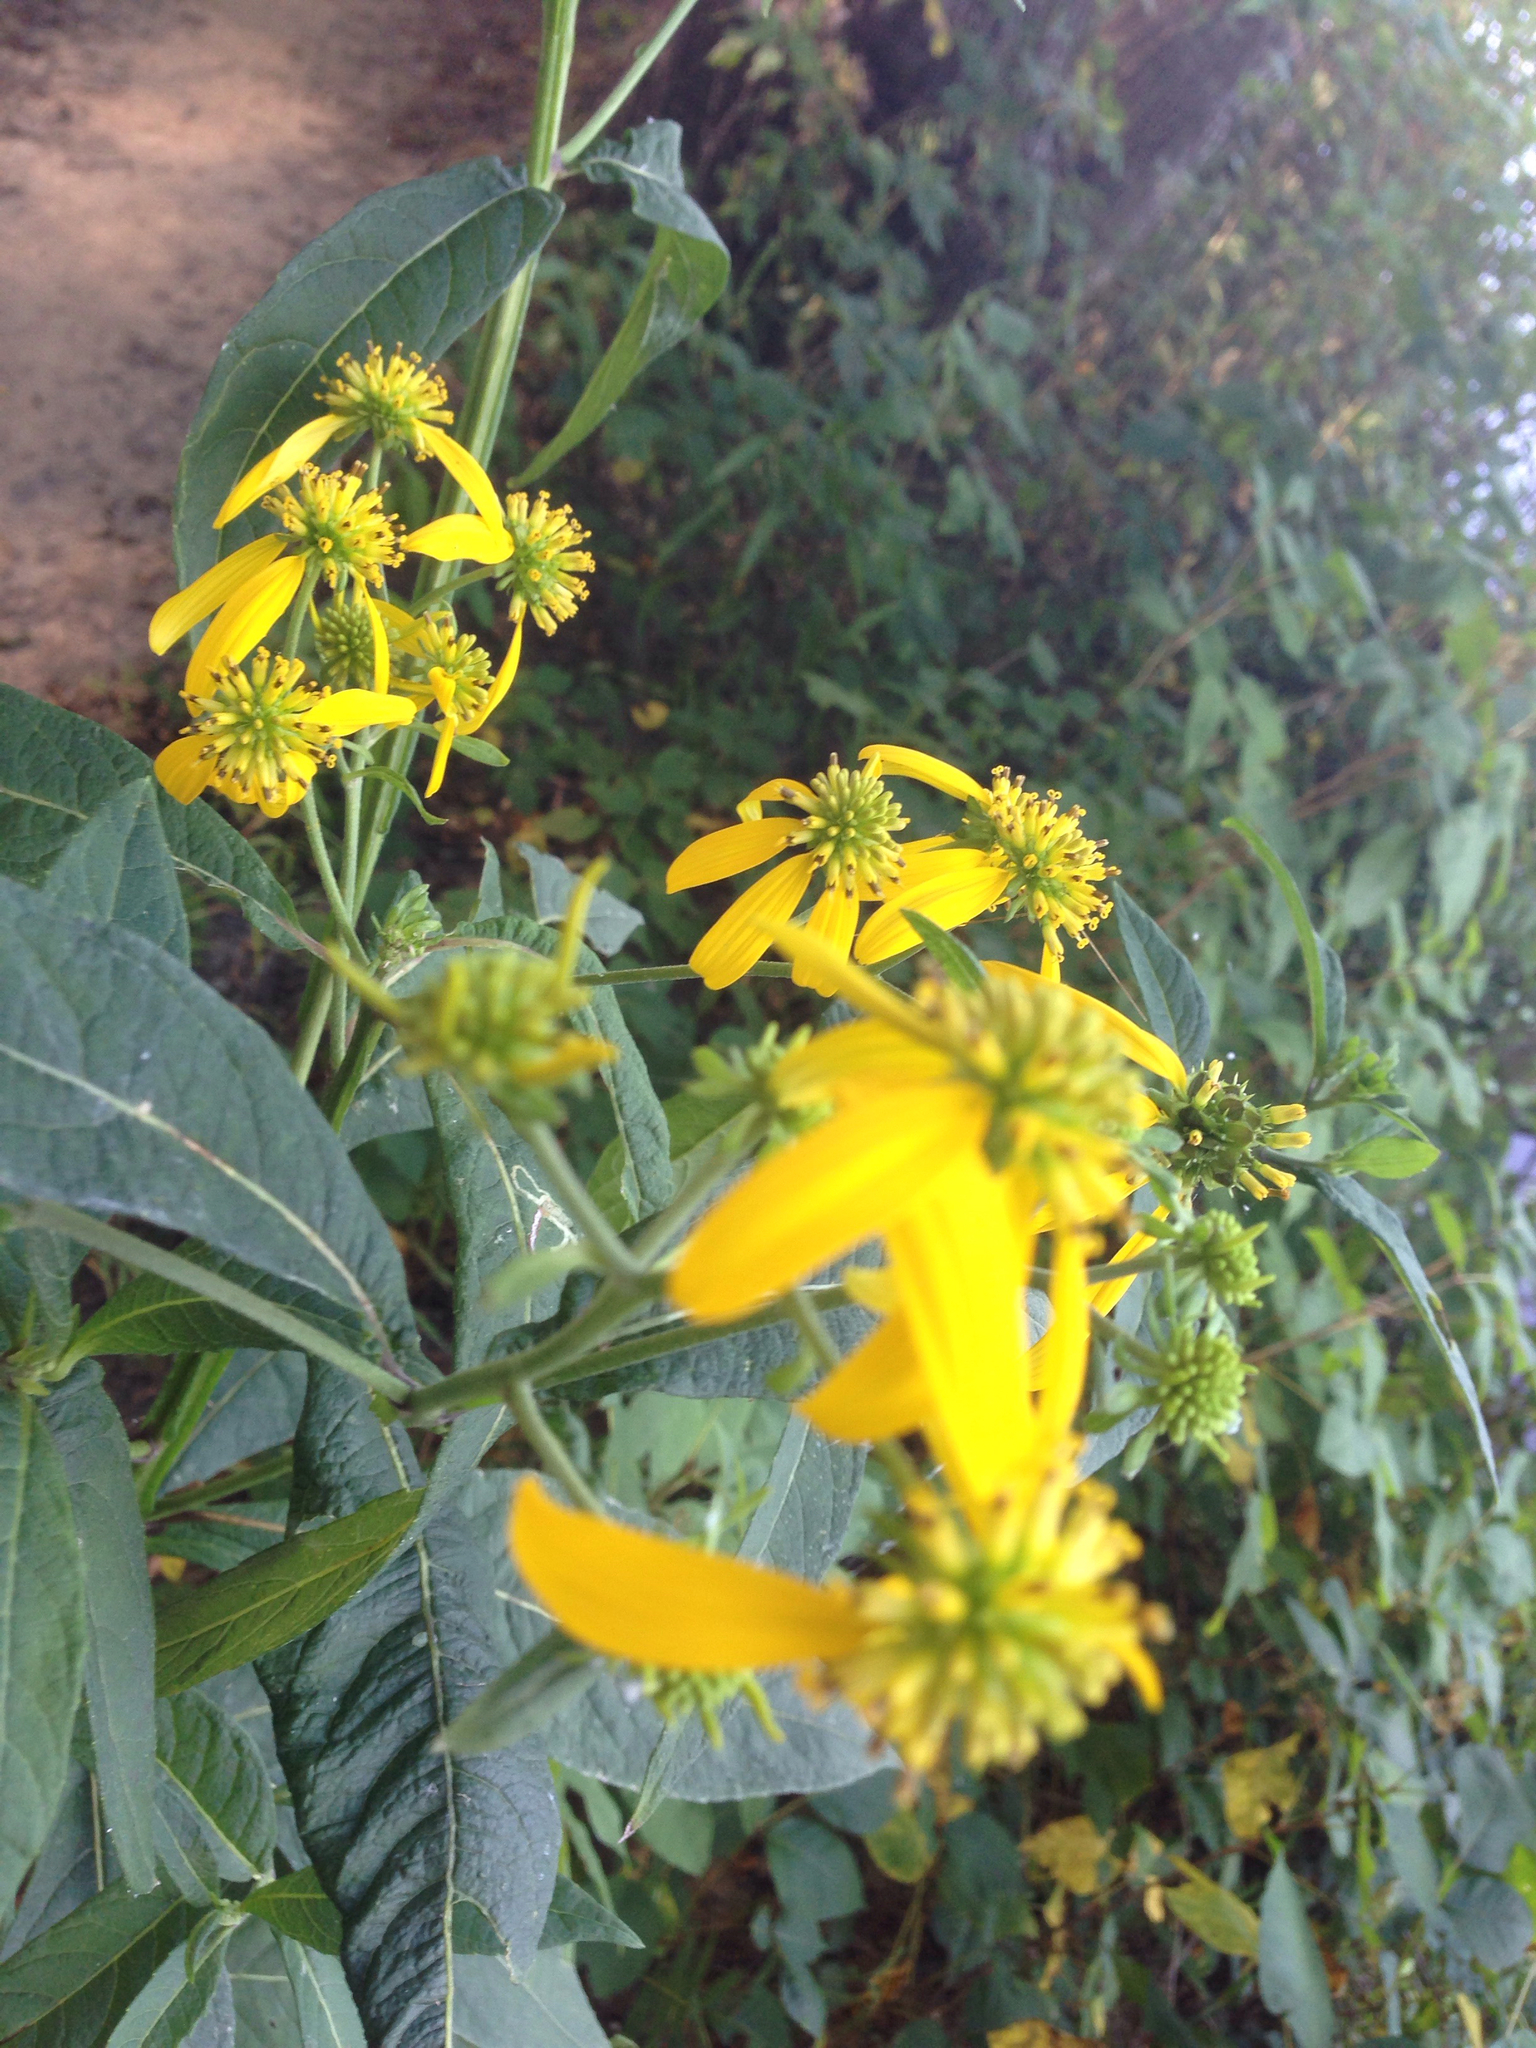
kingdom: Plantae
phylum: Tracheophyta
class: Magnoliopsida
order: Asterales
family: Asteraceae
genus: Verbesina
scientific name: Verbesina alternifolia
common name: Wingstem
